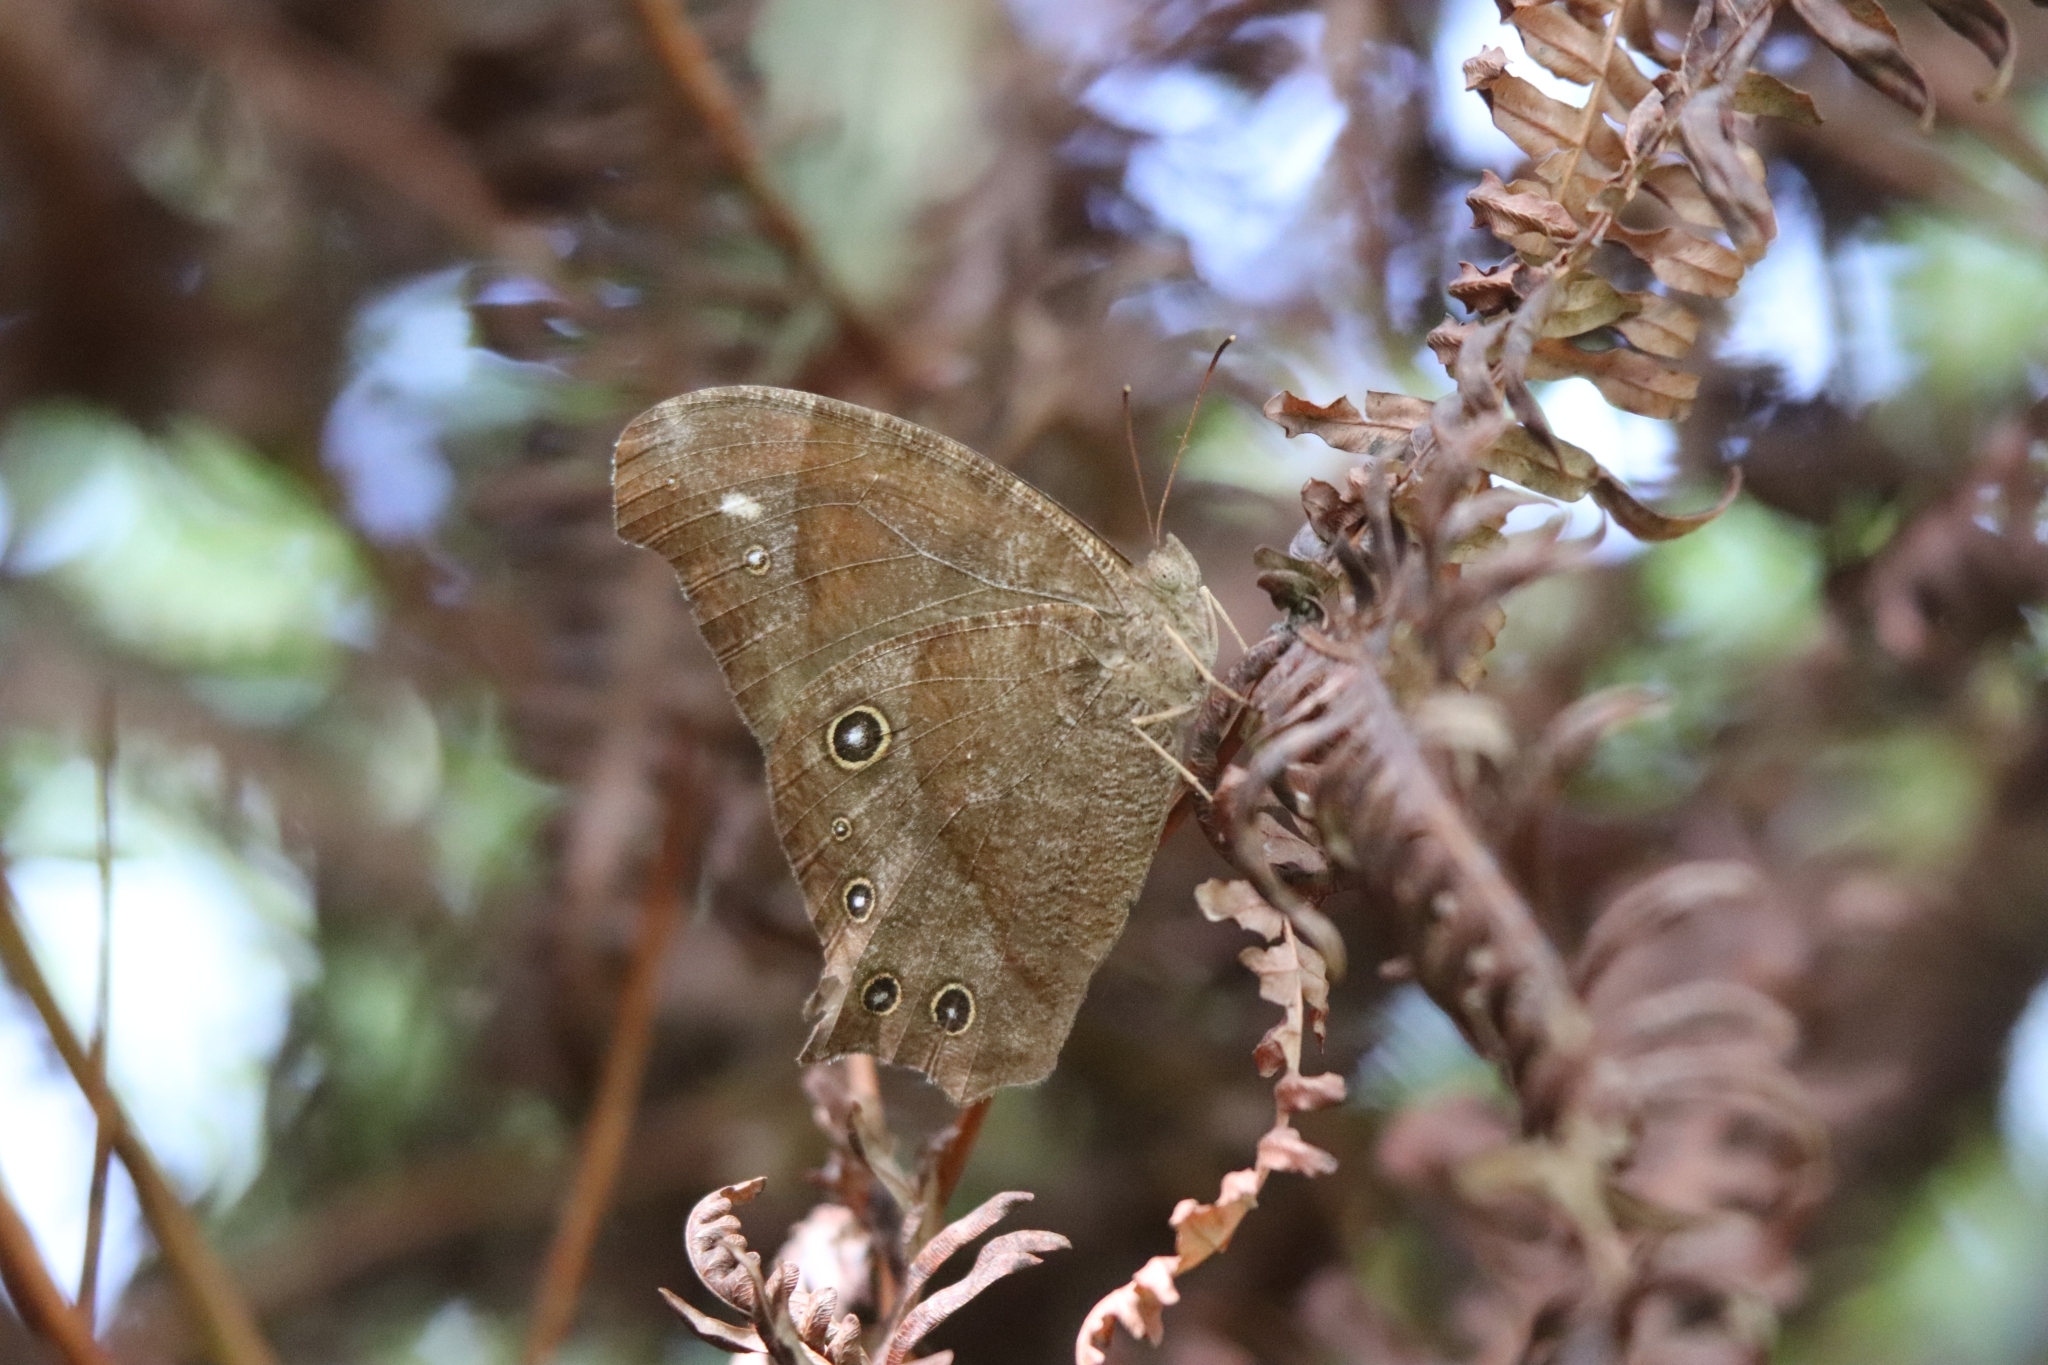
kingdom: Animalia
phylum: Arthropoda
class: Insecta
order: Lepidoptera
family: Nymphalidae
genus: Melanitis
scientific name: Melanitis leda
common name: Twilight brown
